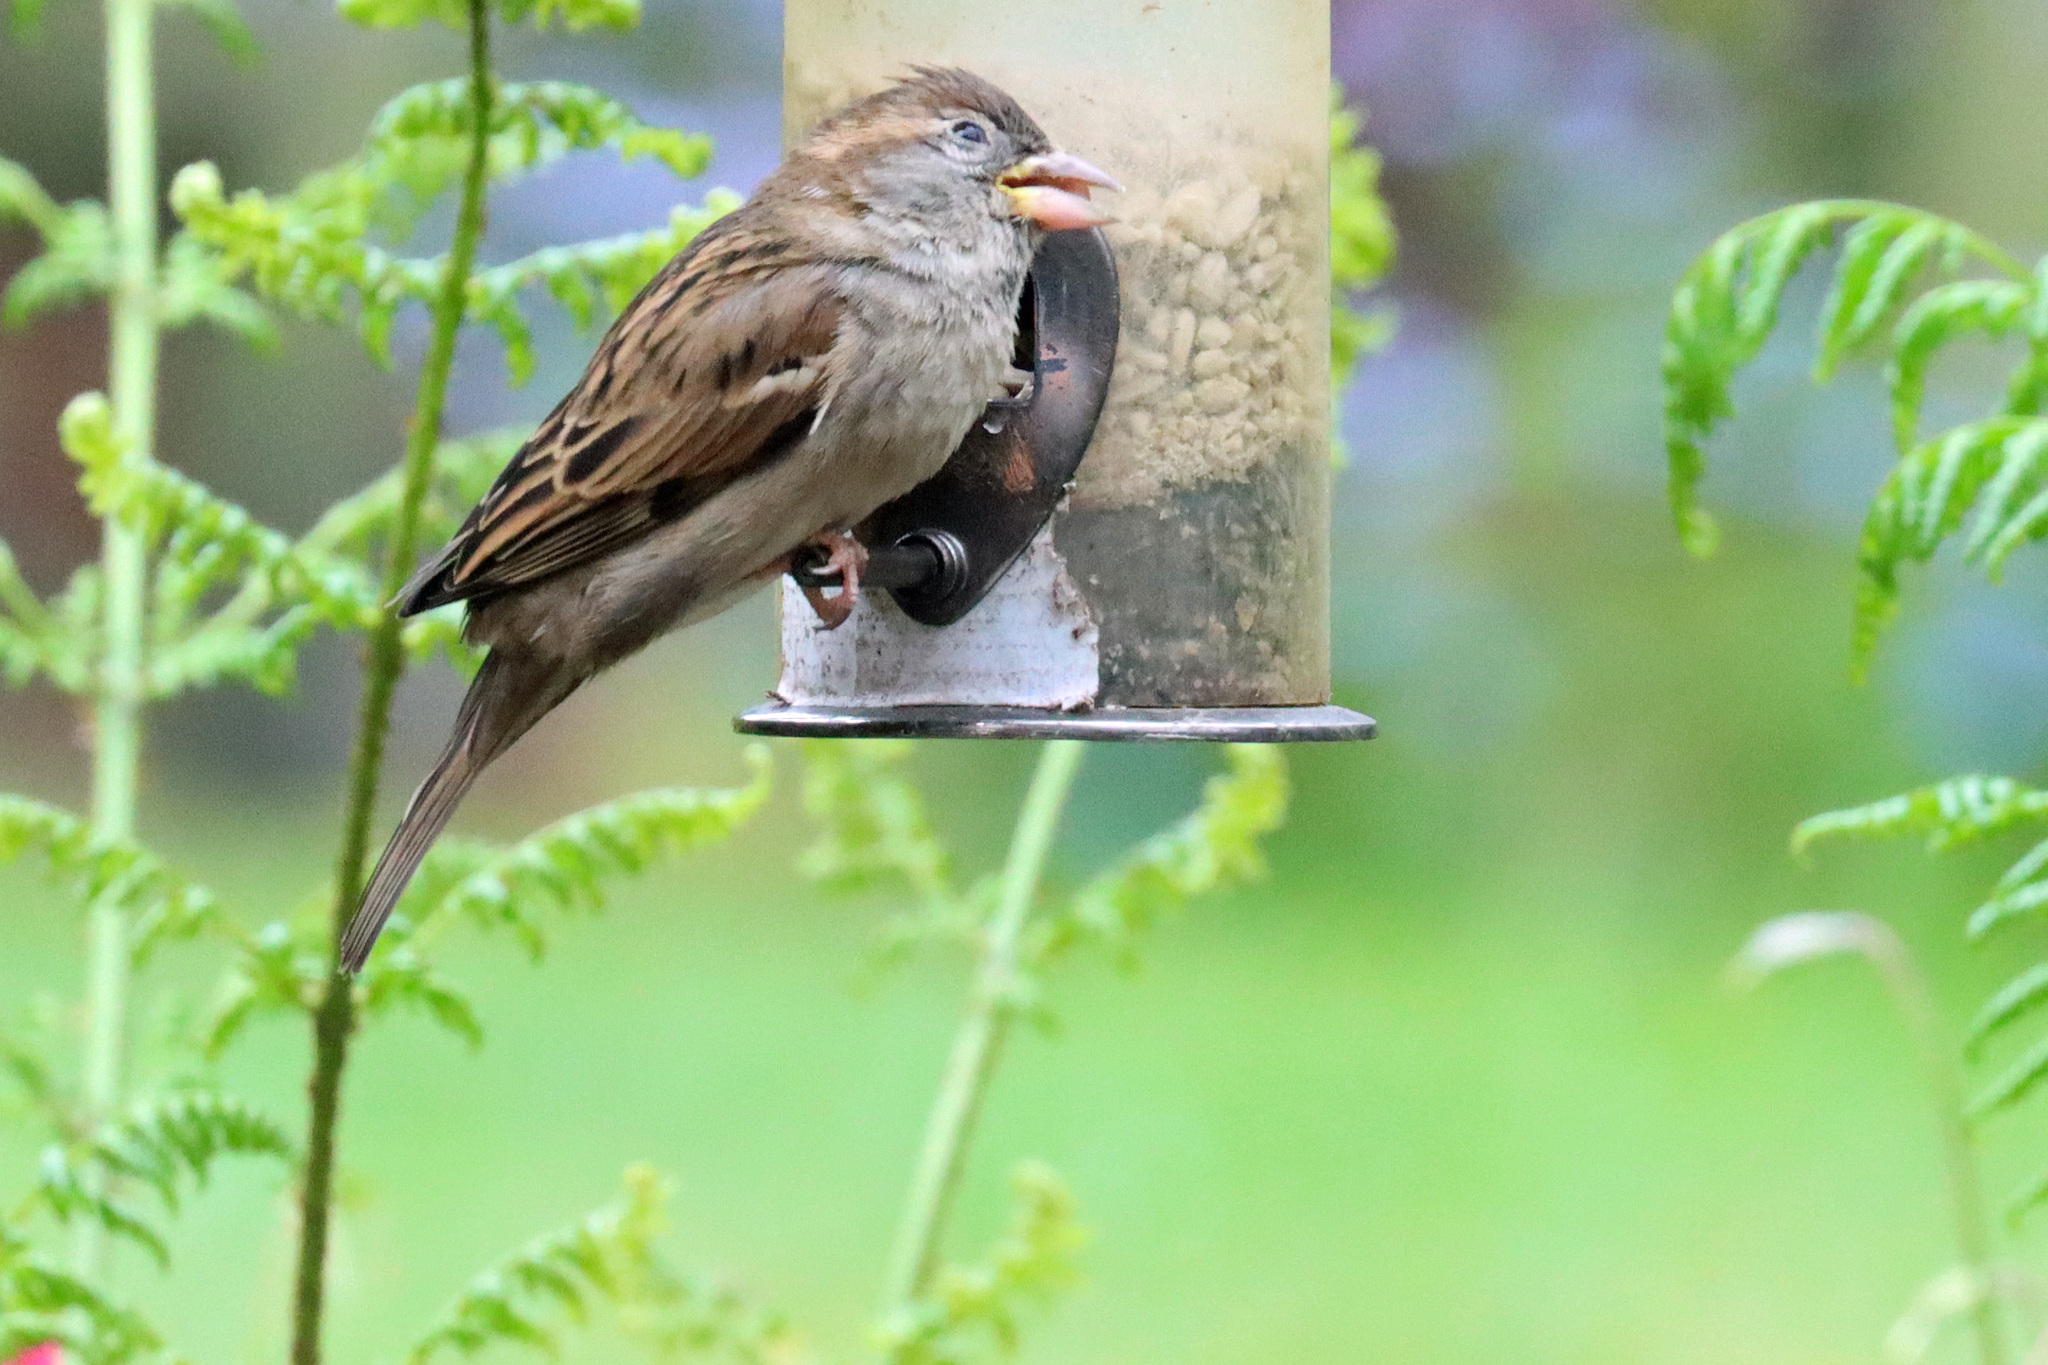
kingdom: Animalia
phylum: Chordata
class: Aves
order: Passeriformes
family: Passeridae
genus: Passer
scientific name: Passer domesticus
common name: House sparrow
